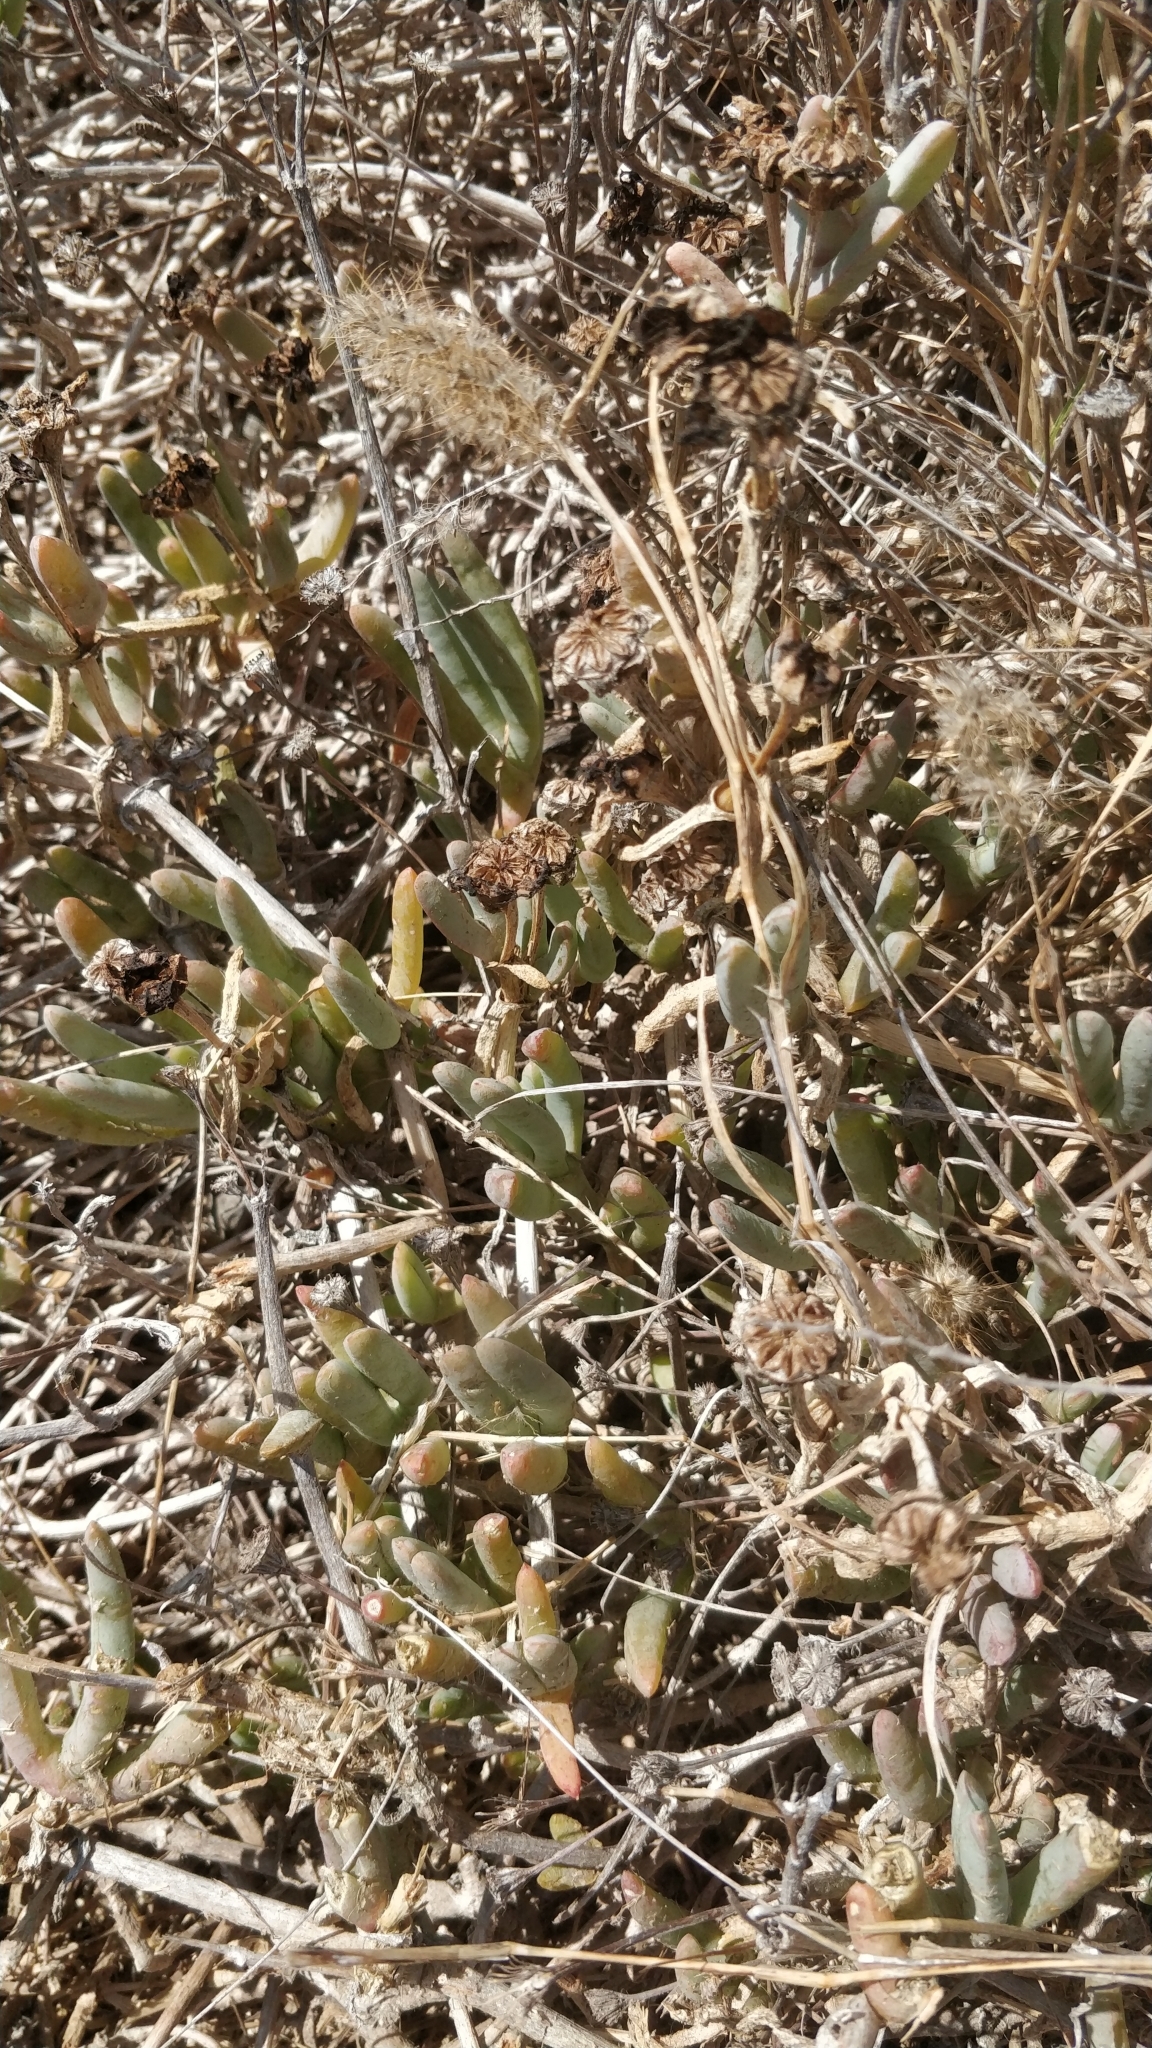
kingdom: Plantae
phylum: Tracheophyta
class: Magnoliopsida
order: Caryophyllales
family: Aizoaceae
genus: Malephora
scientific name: Malephora crocea
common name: Coppery mesemb
